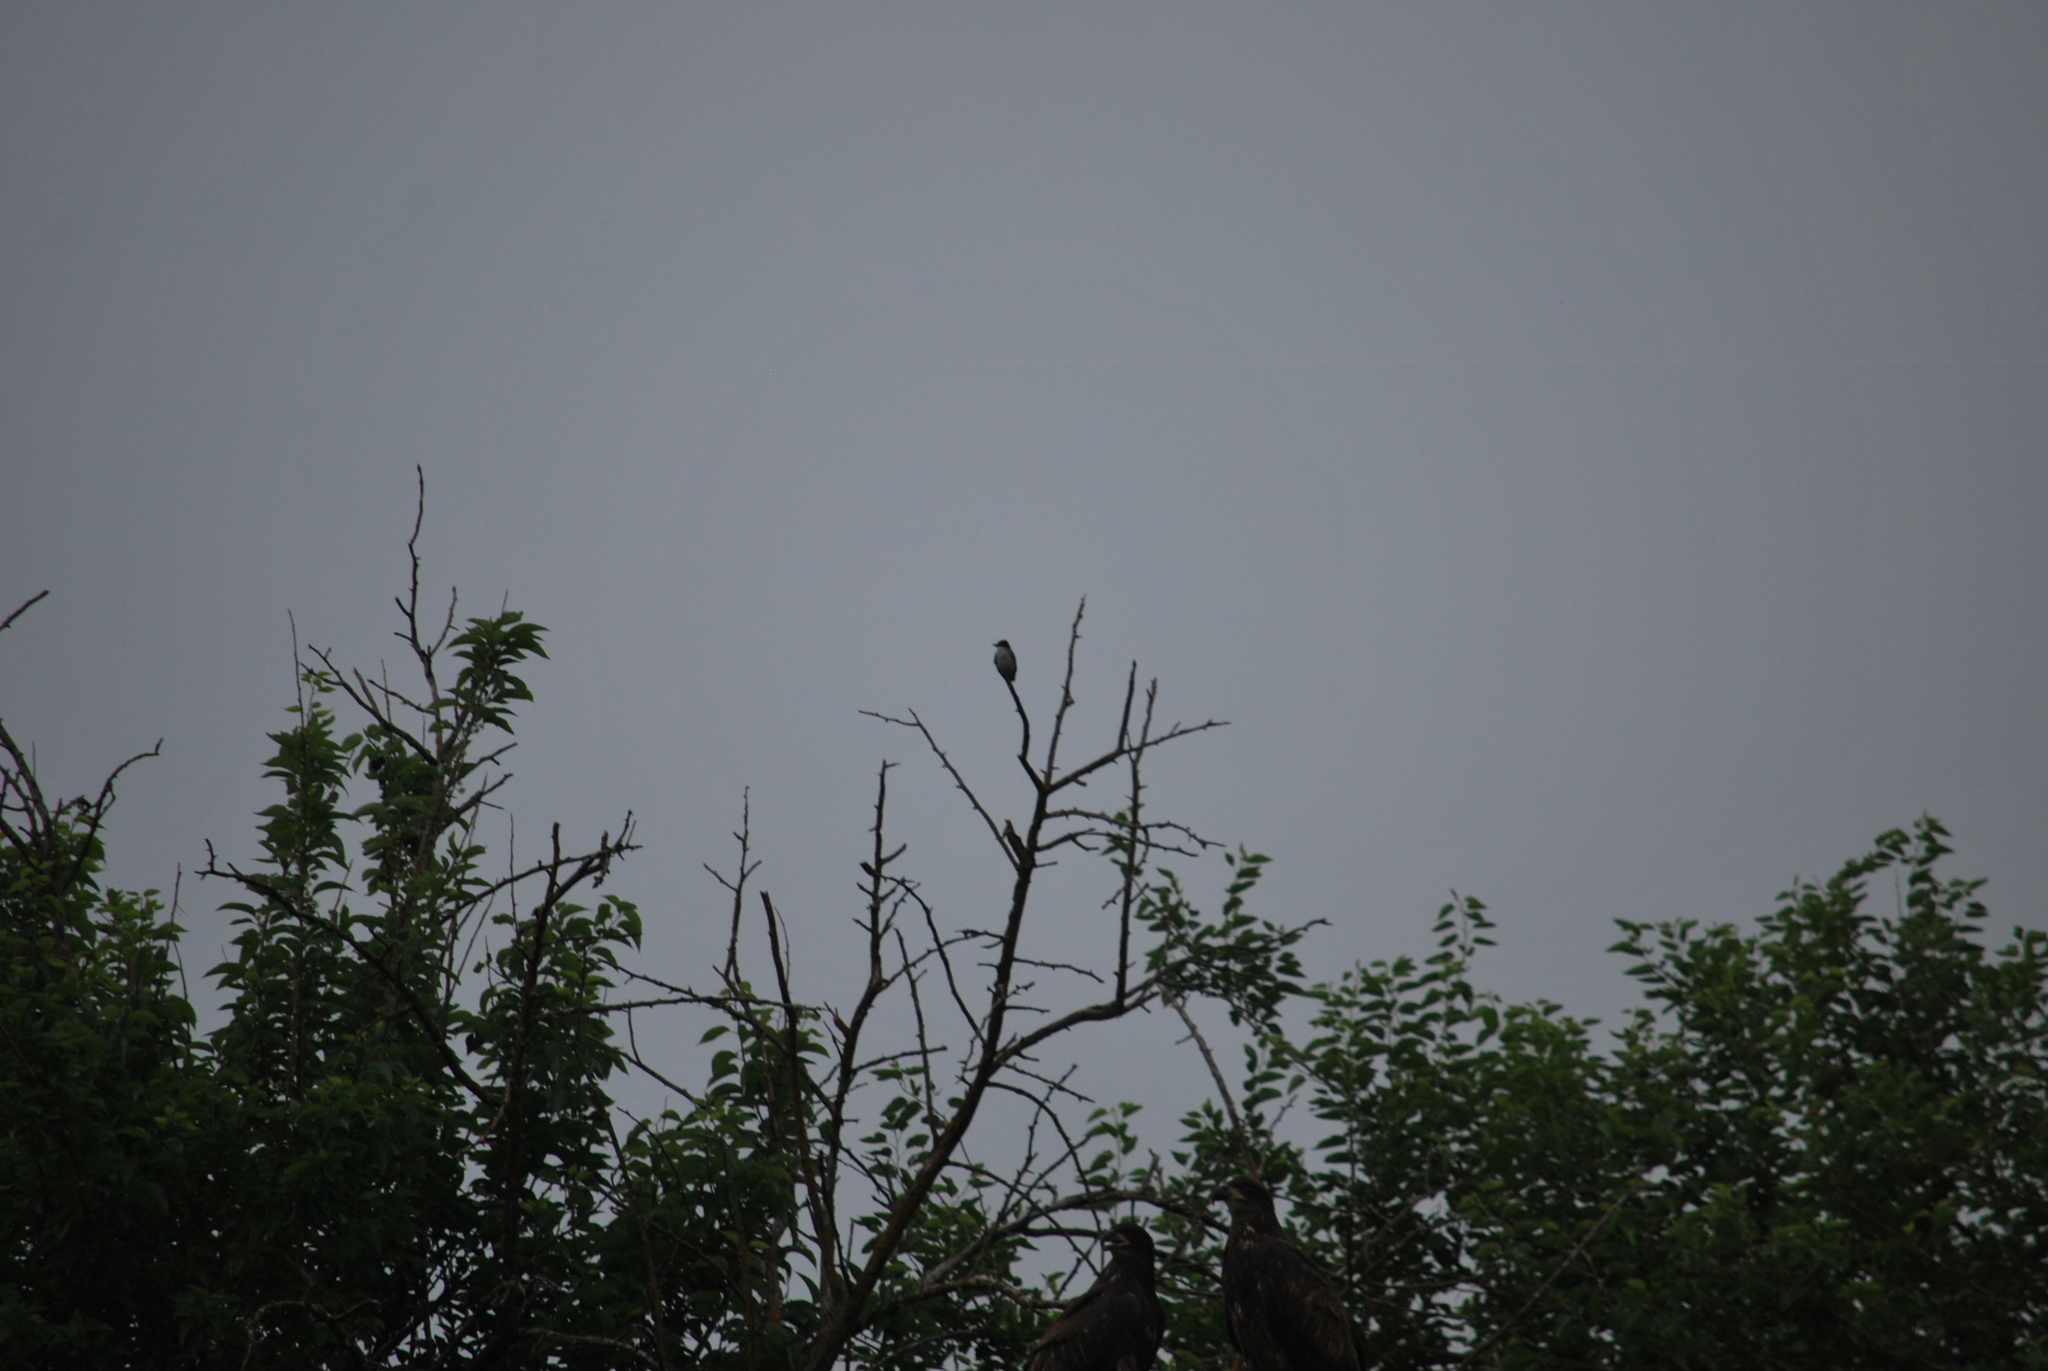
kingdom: Animalia
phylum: Chordata
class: Aves
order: Passeriformes
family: Tyrannidae
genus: Tyrannus
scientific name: Tyrannus tyrannus
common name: Eastern kingbird
